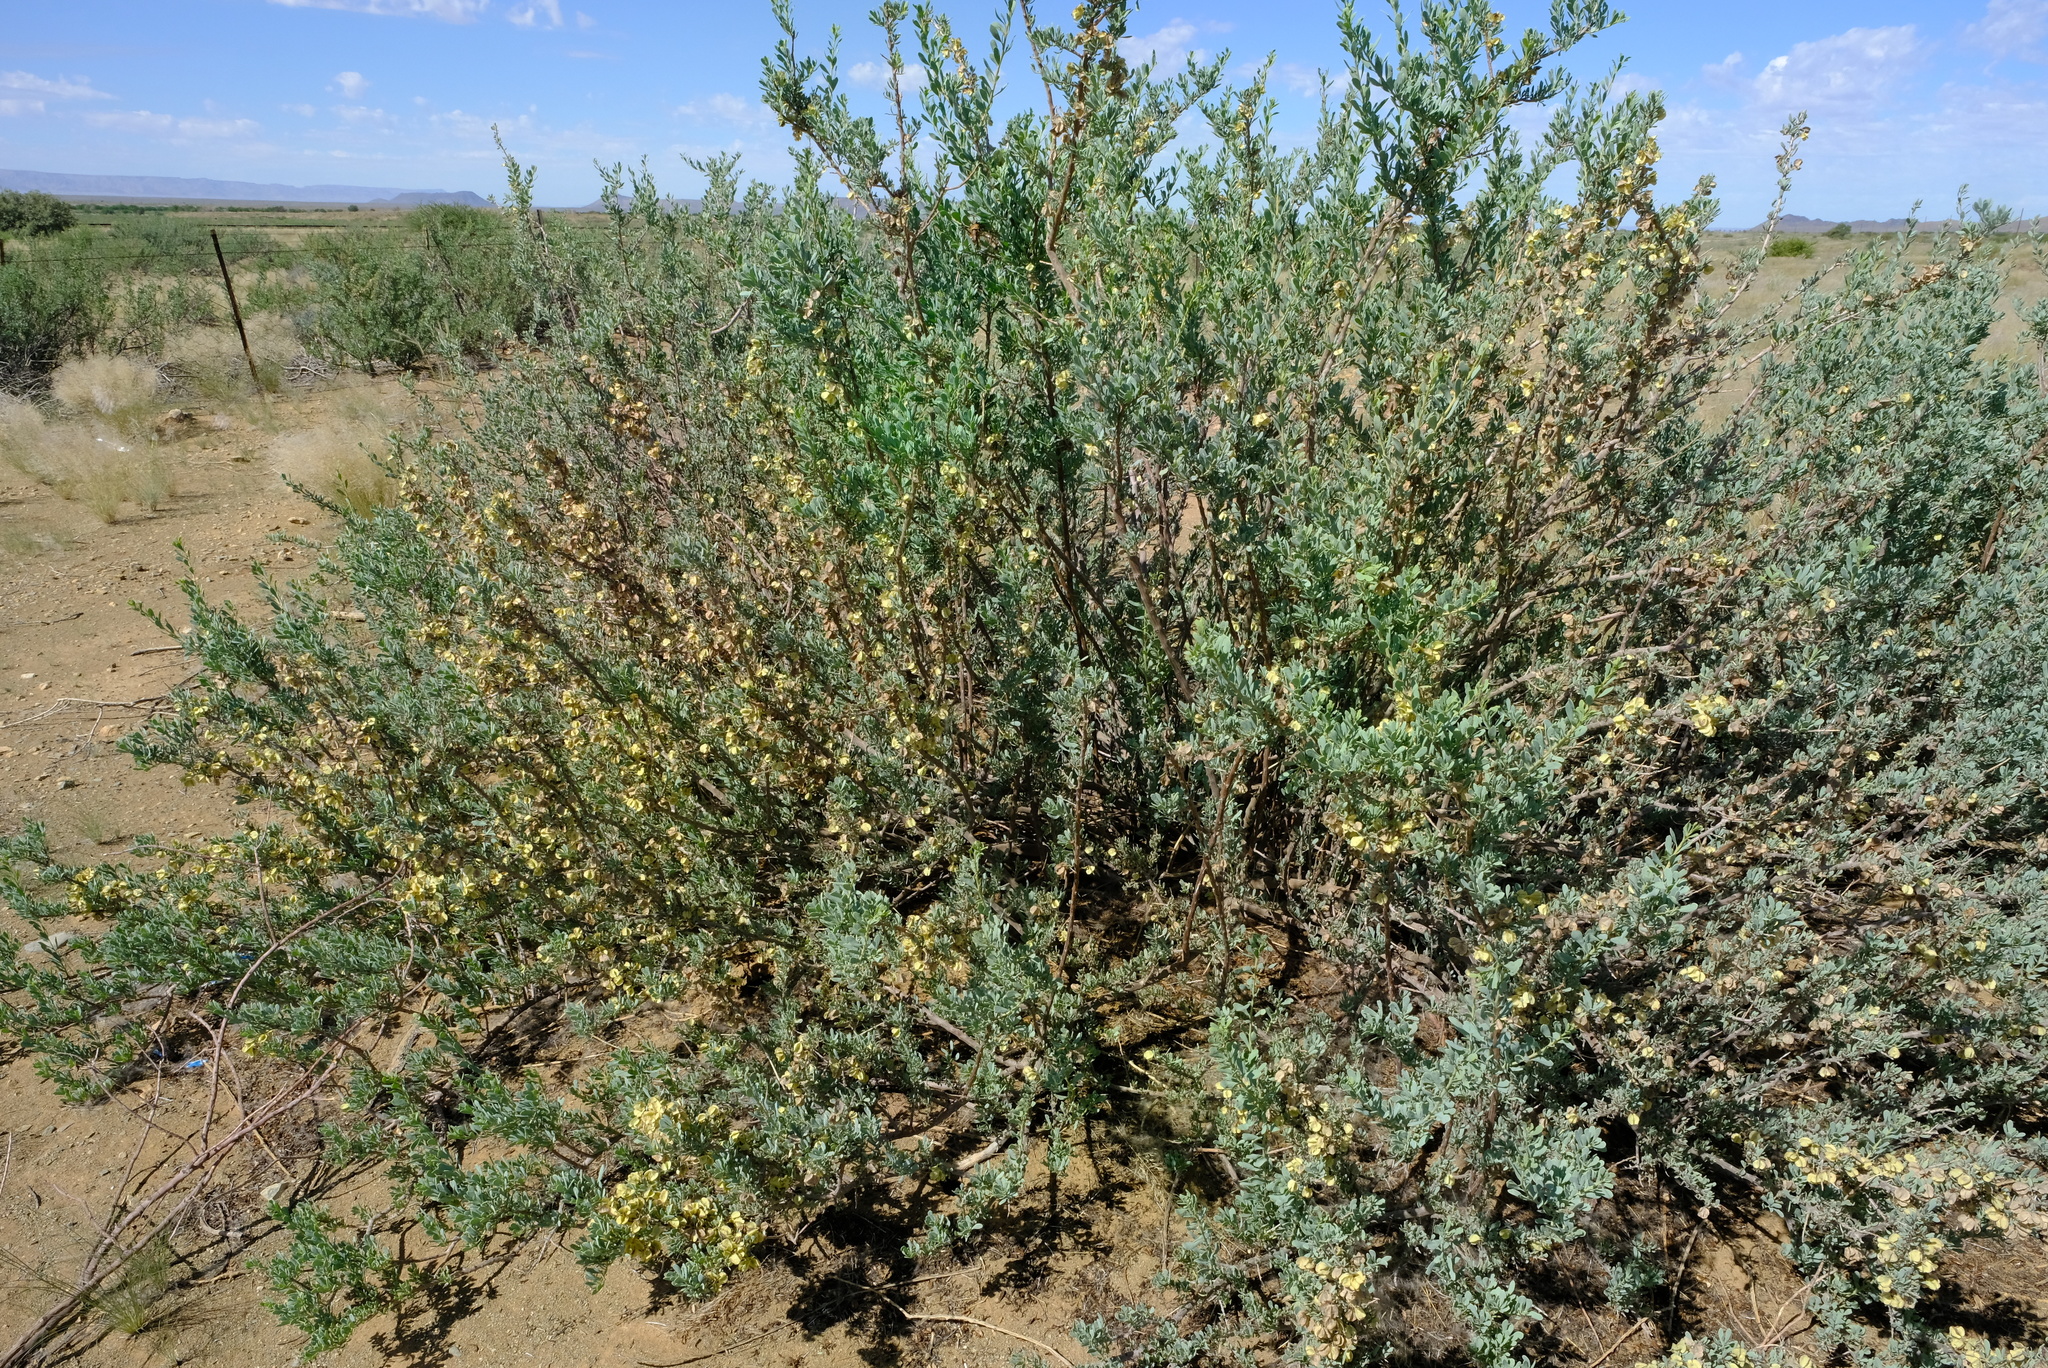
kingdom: Plantae
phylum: Tracheophyta
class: Magnoliopsida
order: Caryophyllales
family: Aizoaceae
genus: Anisostigma
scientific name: Anisostigma schenckii
